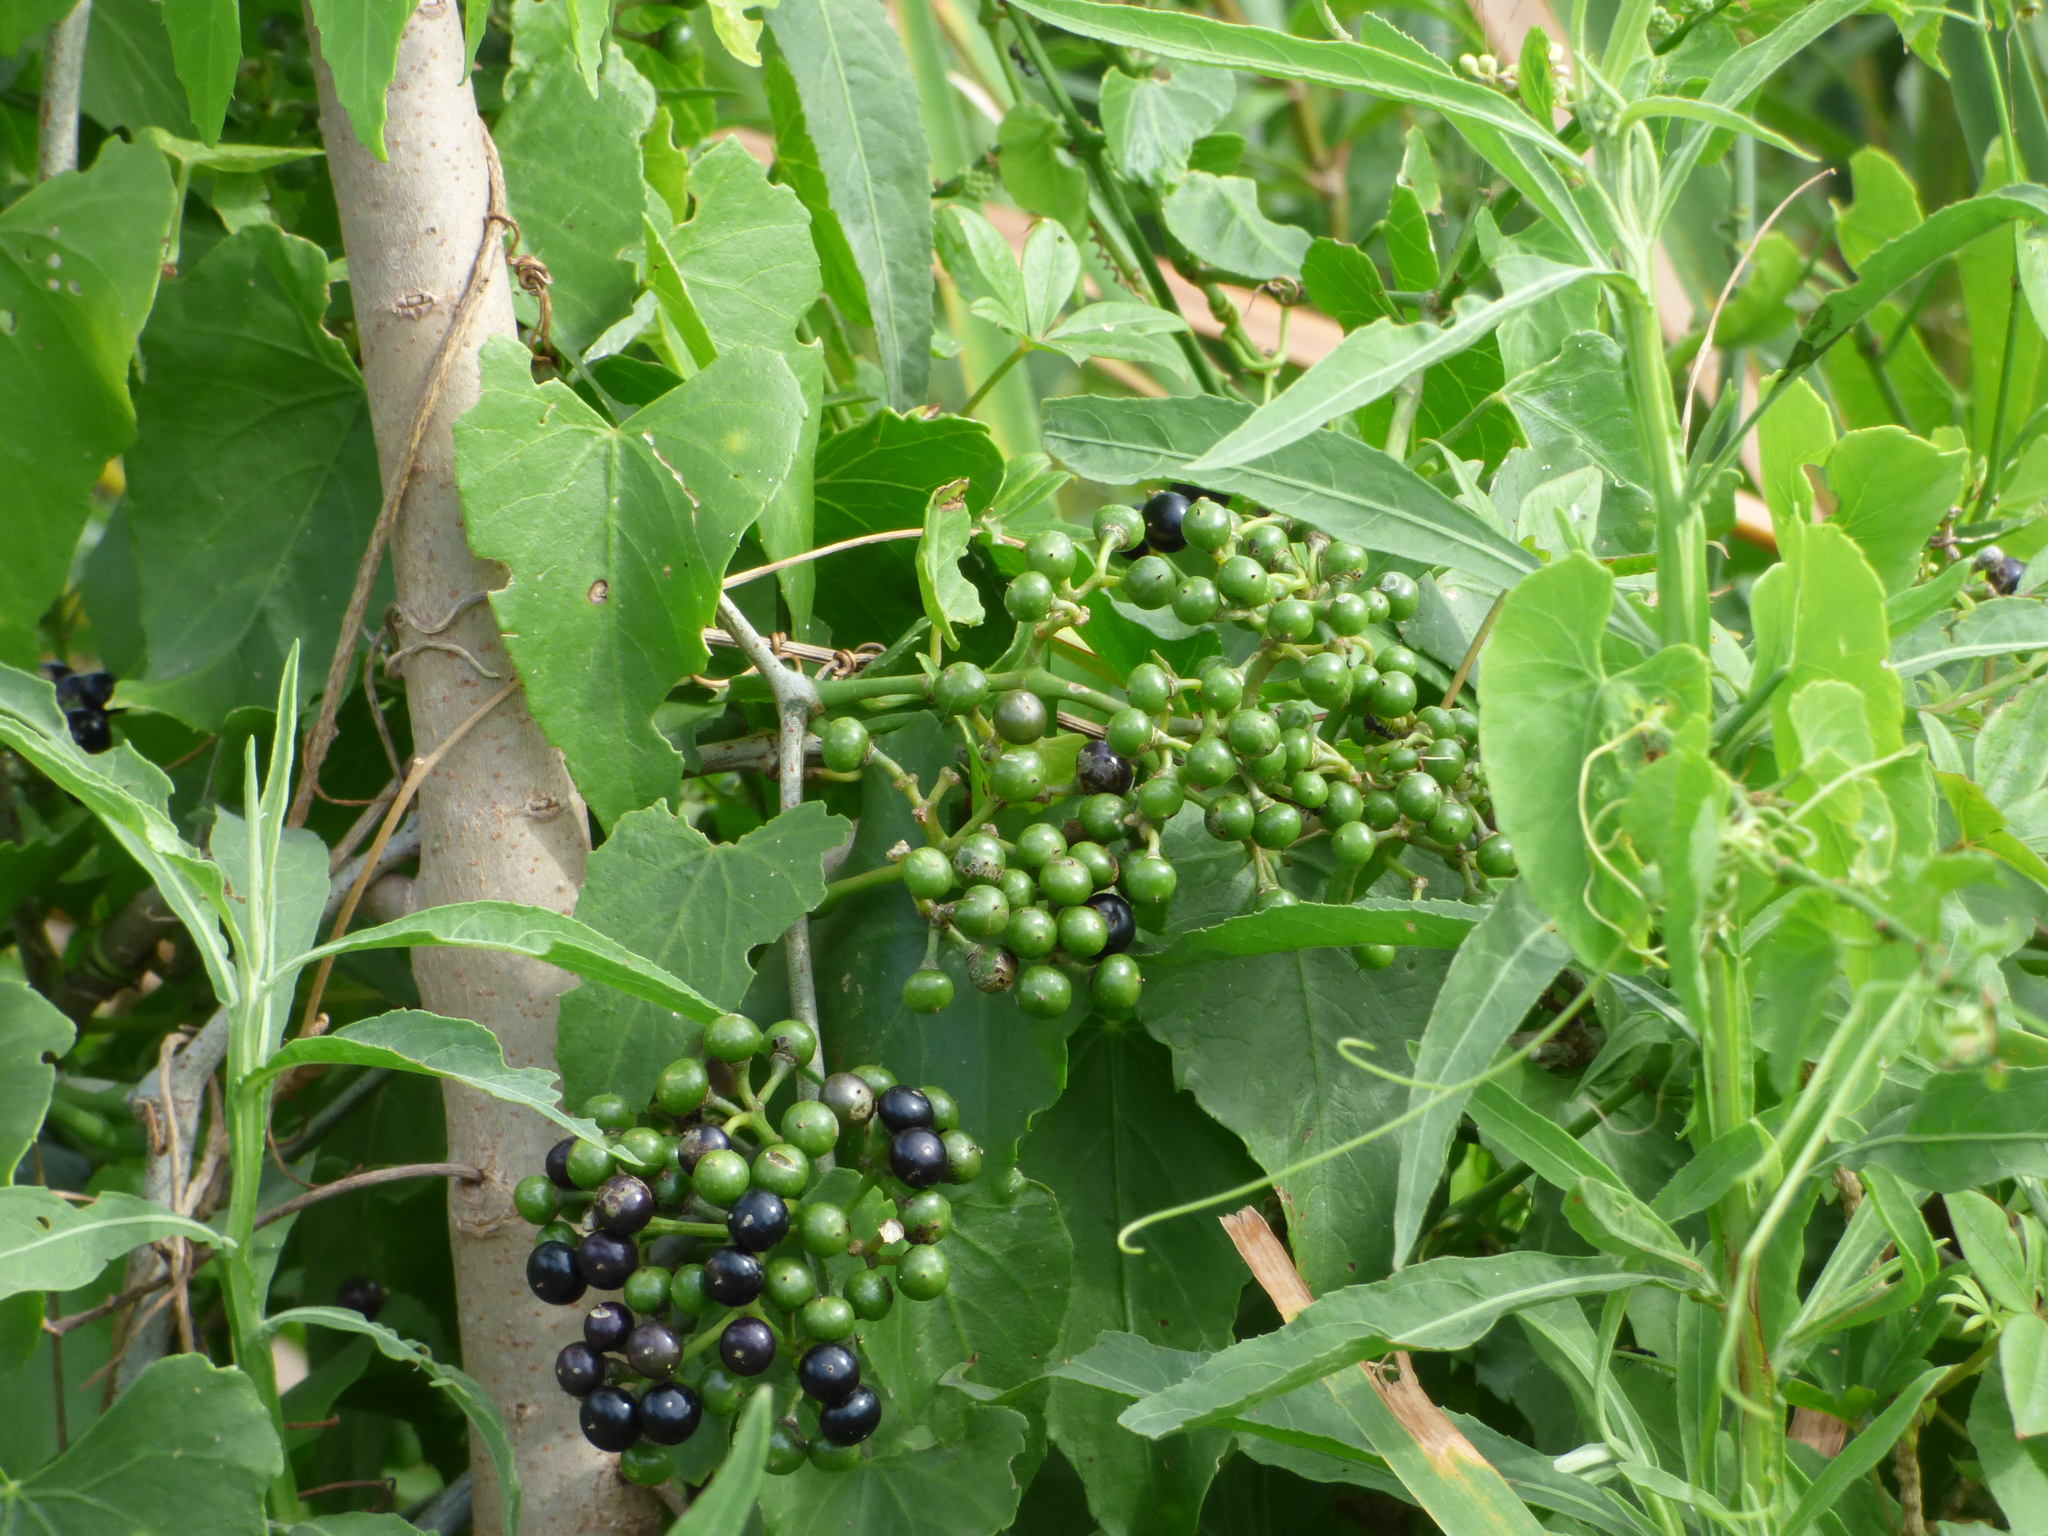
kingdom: Plantae
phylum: Tracheophyta
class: Magnoliopsida
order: Vitales
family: Vitaceae
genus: Cissus
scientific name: Cissus verticillata
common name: Princess vine
